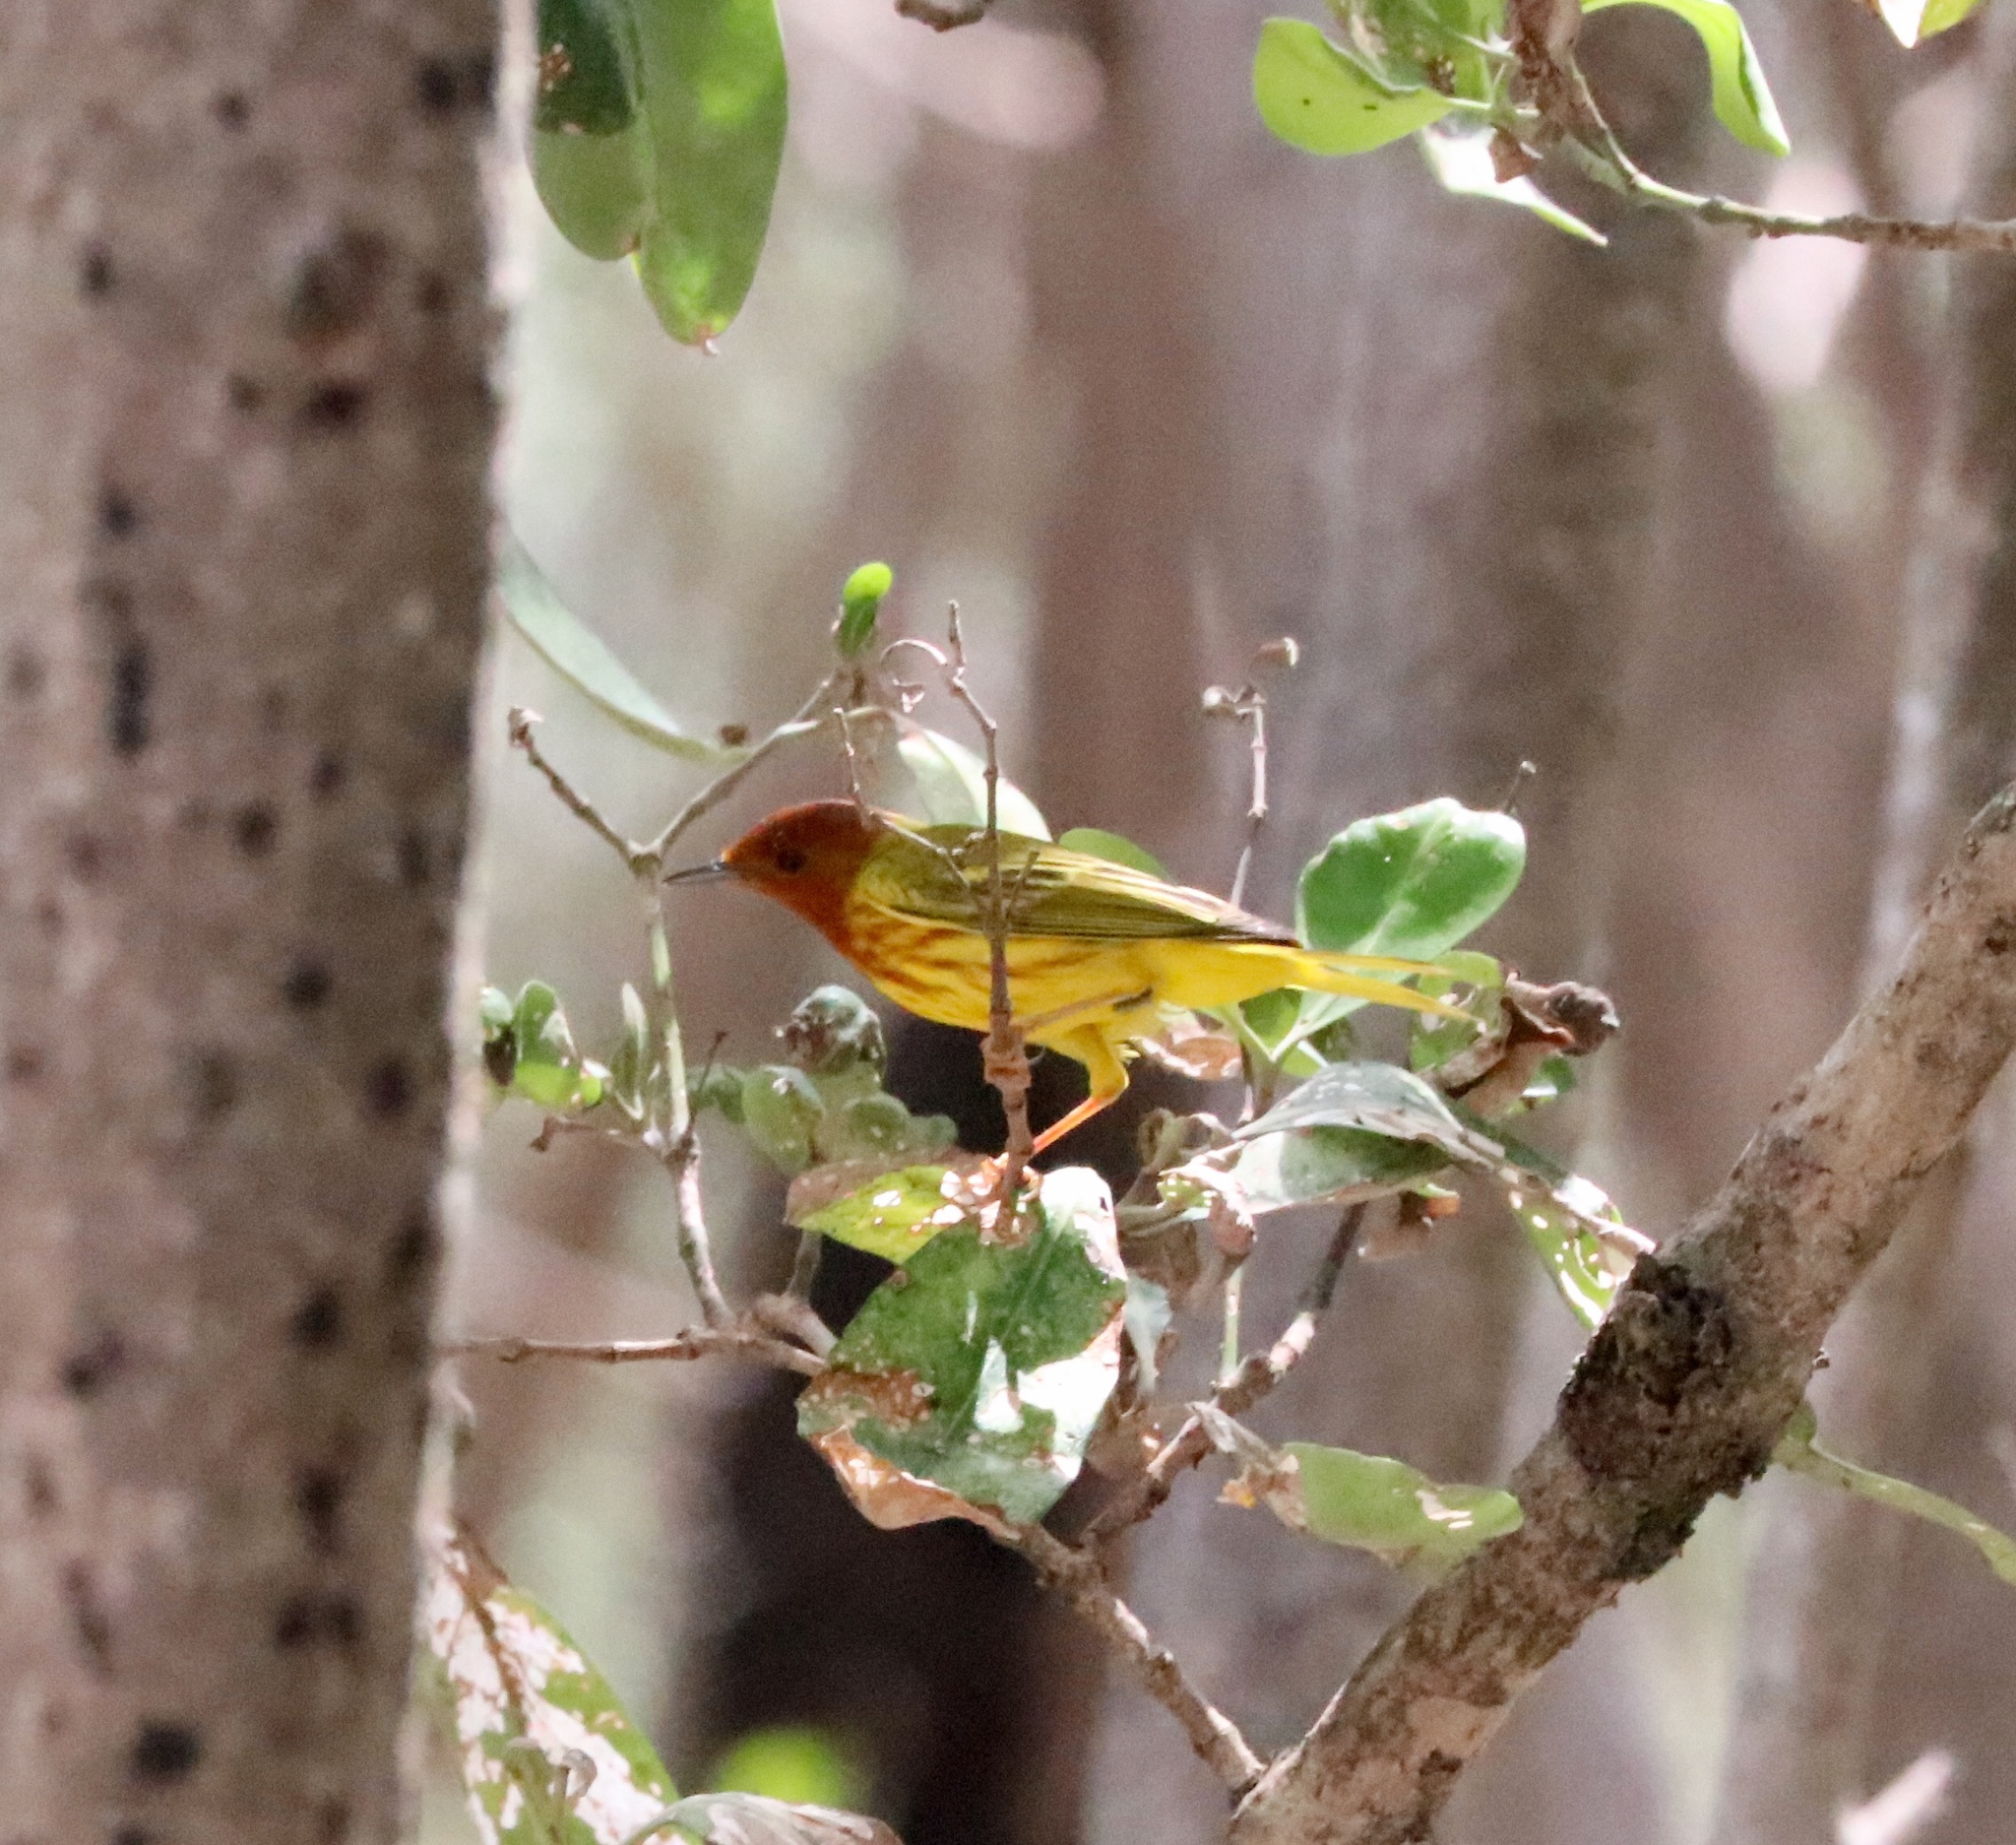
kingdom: Animalia
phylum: Chordata
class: Aves
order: Passeriformes
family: Parulidae
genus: Setophaga
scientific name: Setophaga petechia
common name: Yellow warbler
